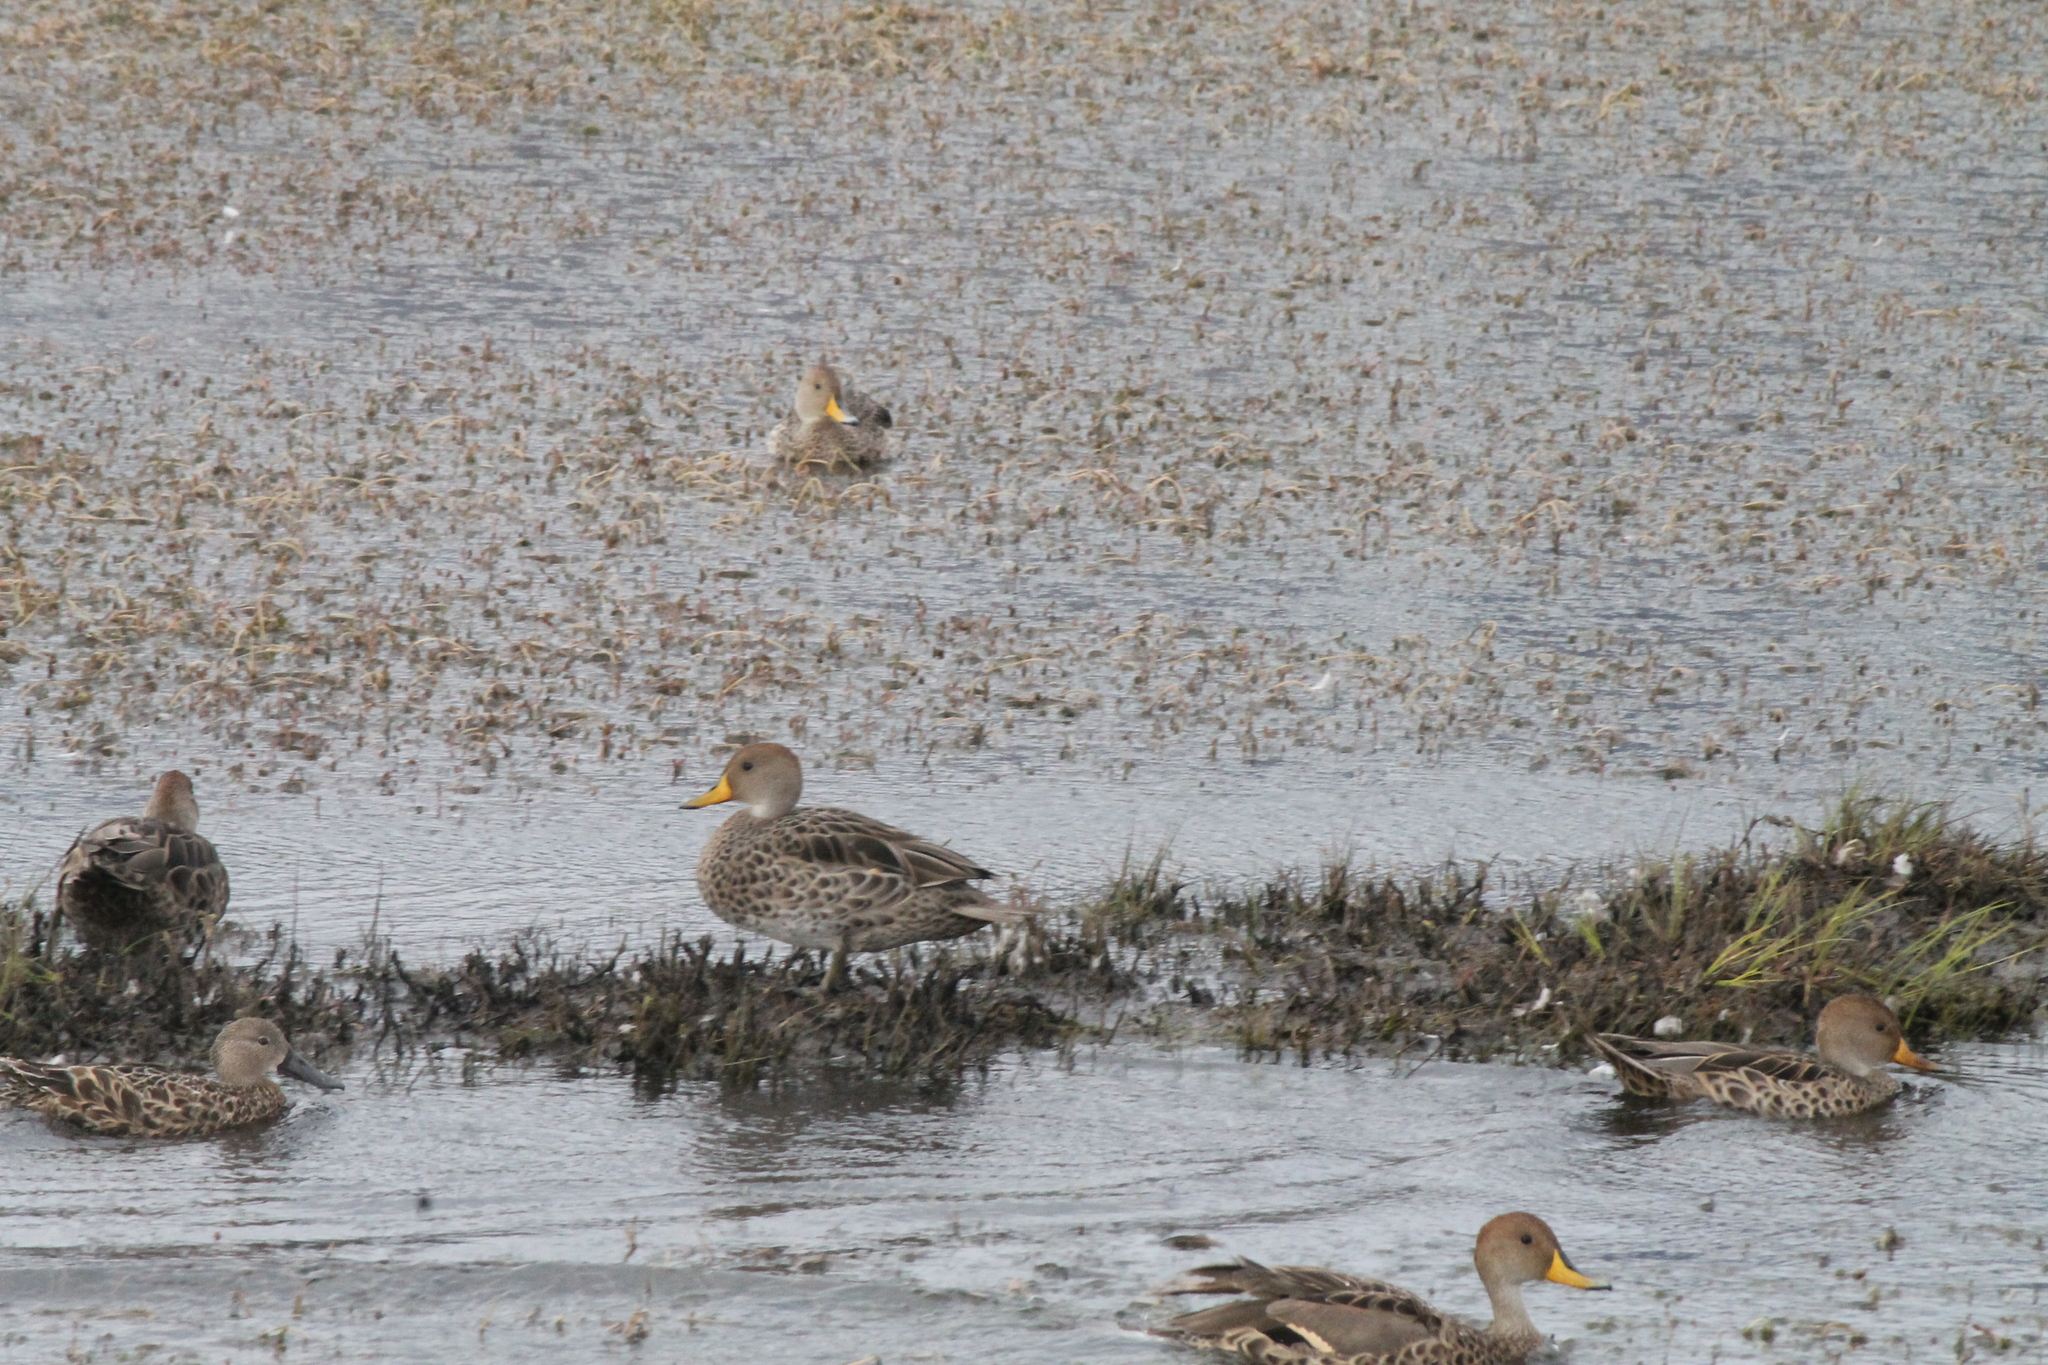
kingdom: Animalia
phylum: Chordata
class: Aves
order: Anseriformes
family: Anatidae
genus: Anas
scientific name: Anas georgica
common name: Yellow-billed pintail
